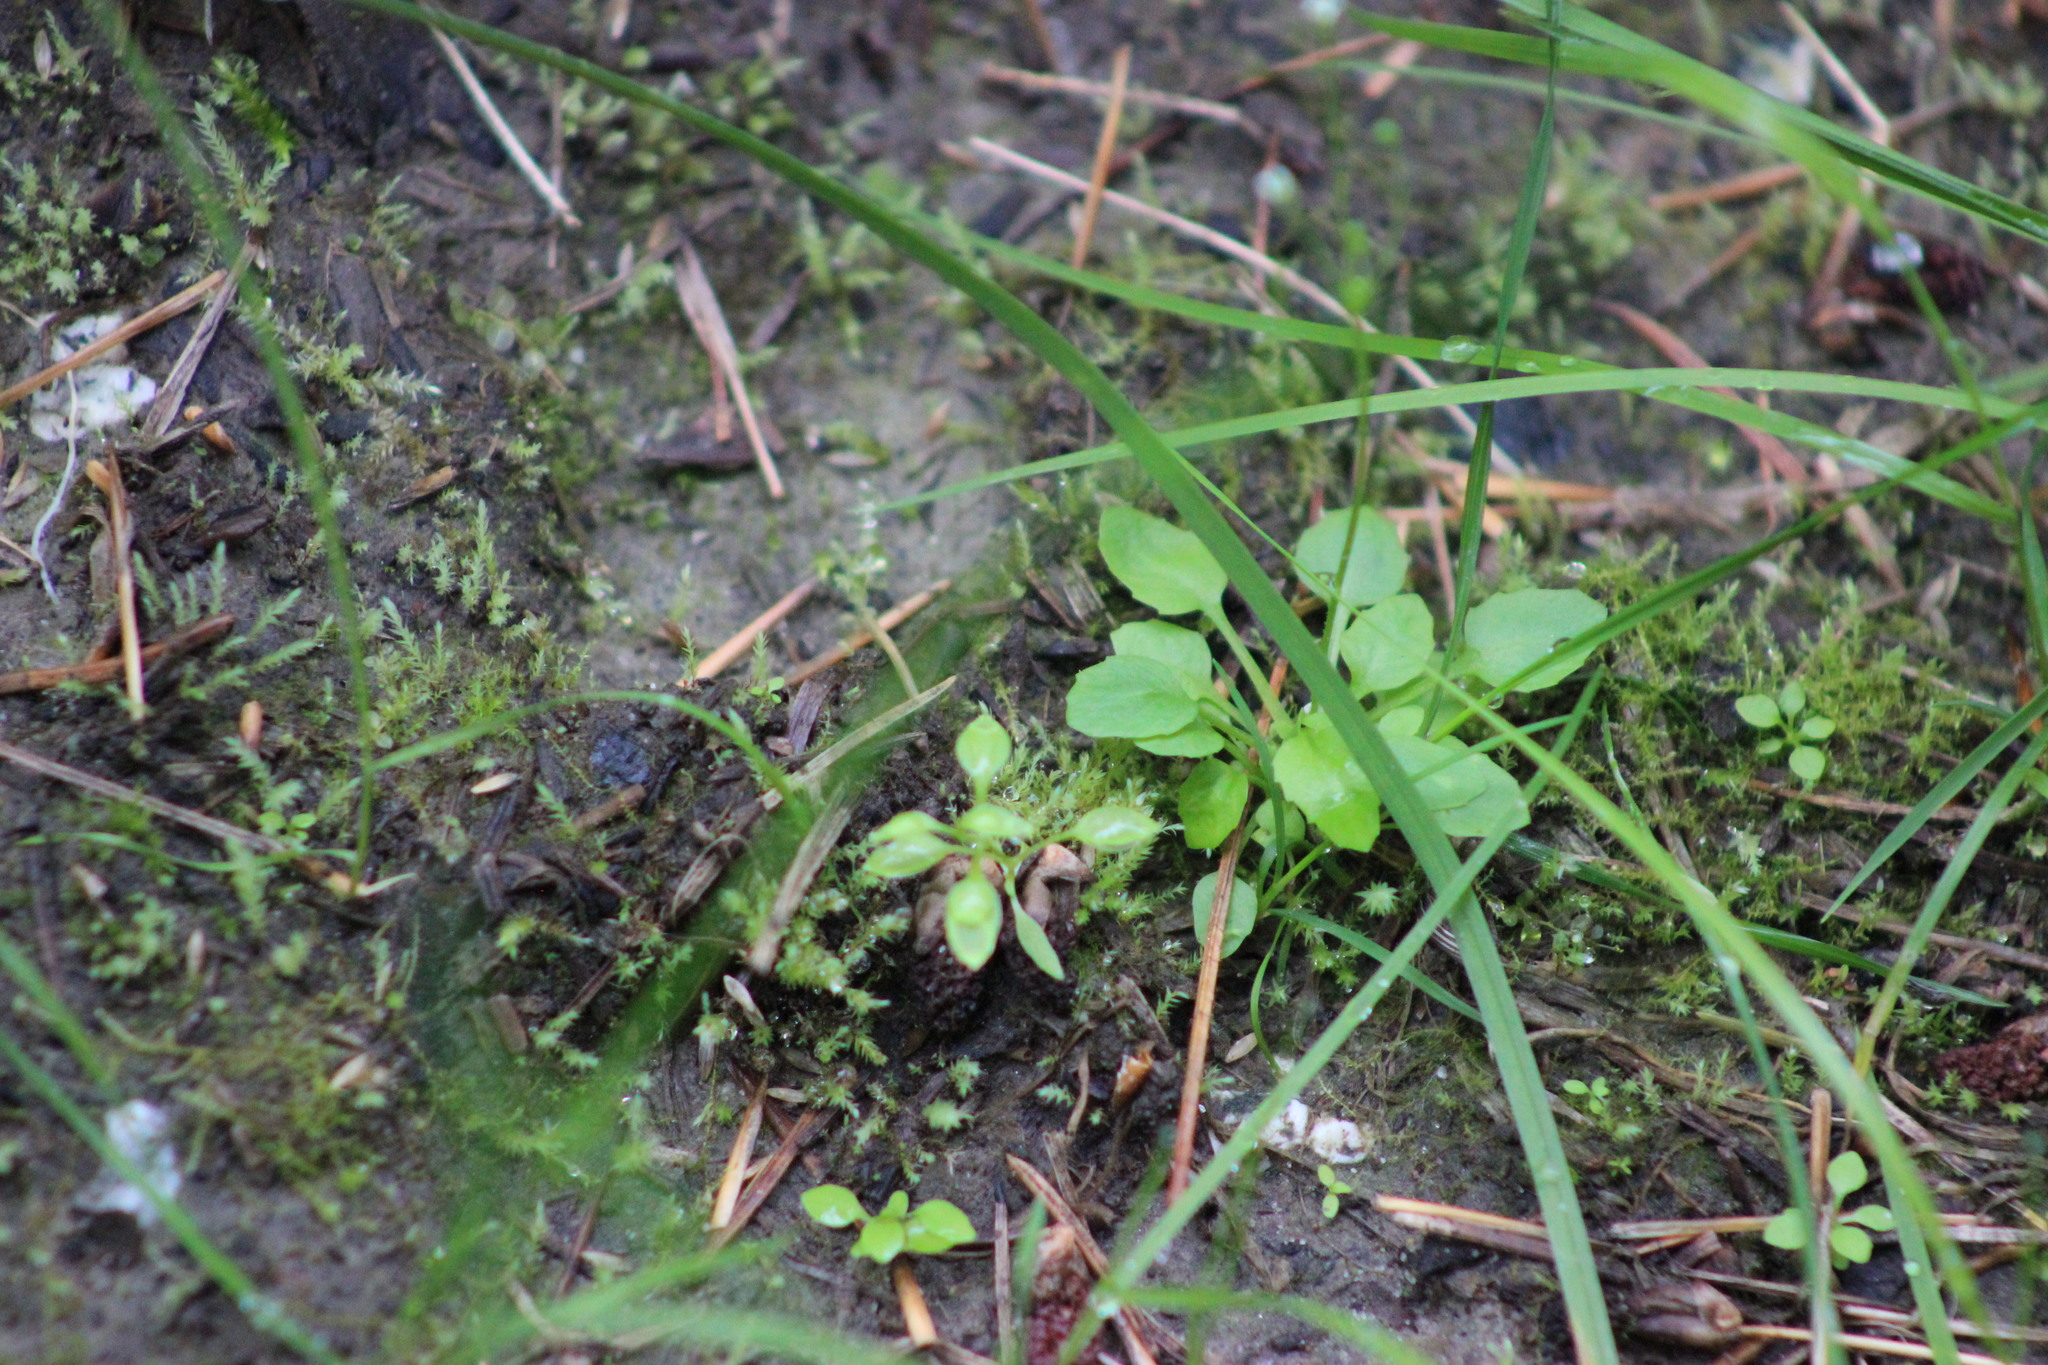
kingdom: Plantae
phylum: Tracheophyta
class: Magnoliopsida
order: Ericales
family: Primulaceae
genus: Androsace
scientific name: Androsace filiformis
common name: Filiform rock jasmine
